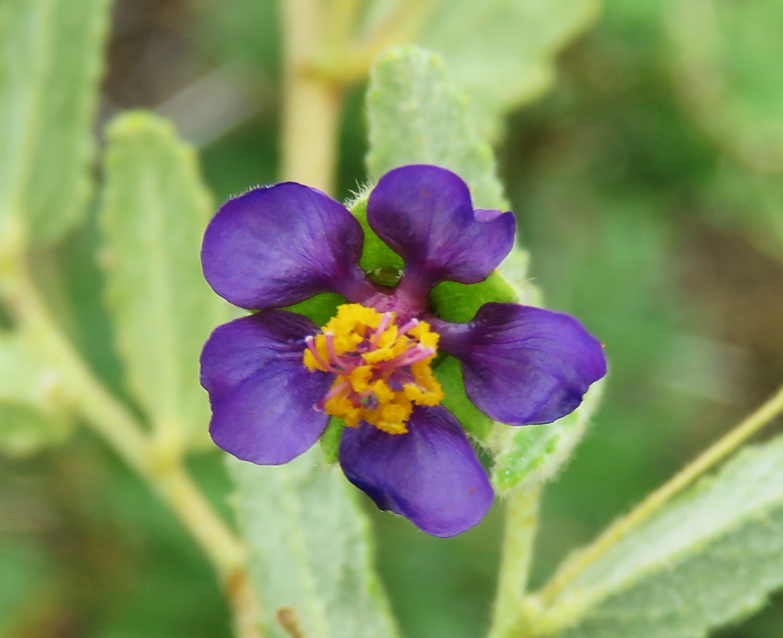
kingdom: Plantae
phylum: Tracheophyta
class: Magnoliopsida
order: Malvales
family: Malvaceae
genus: Meximalva
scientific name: Meximalva filipes
